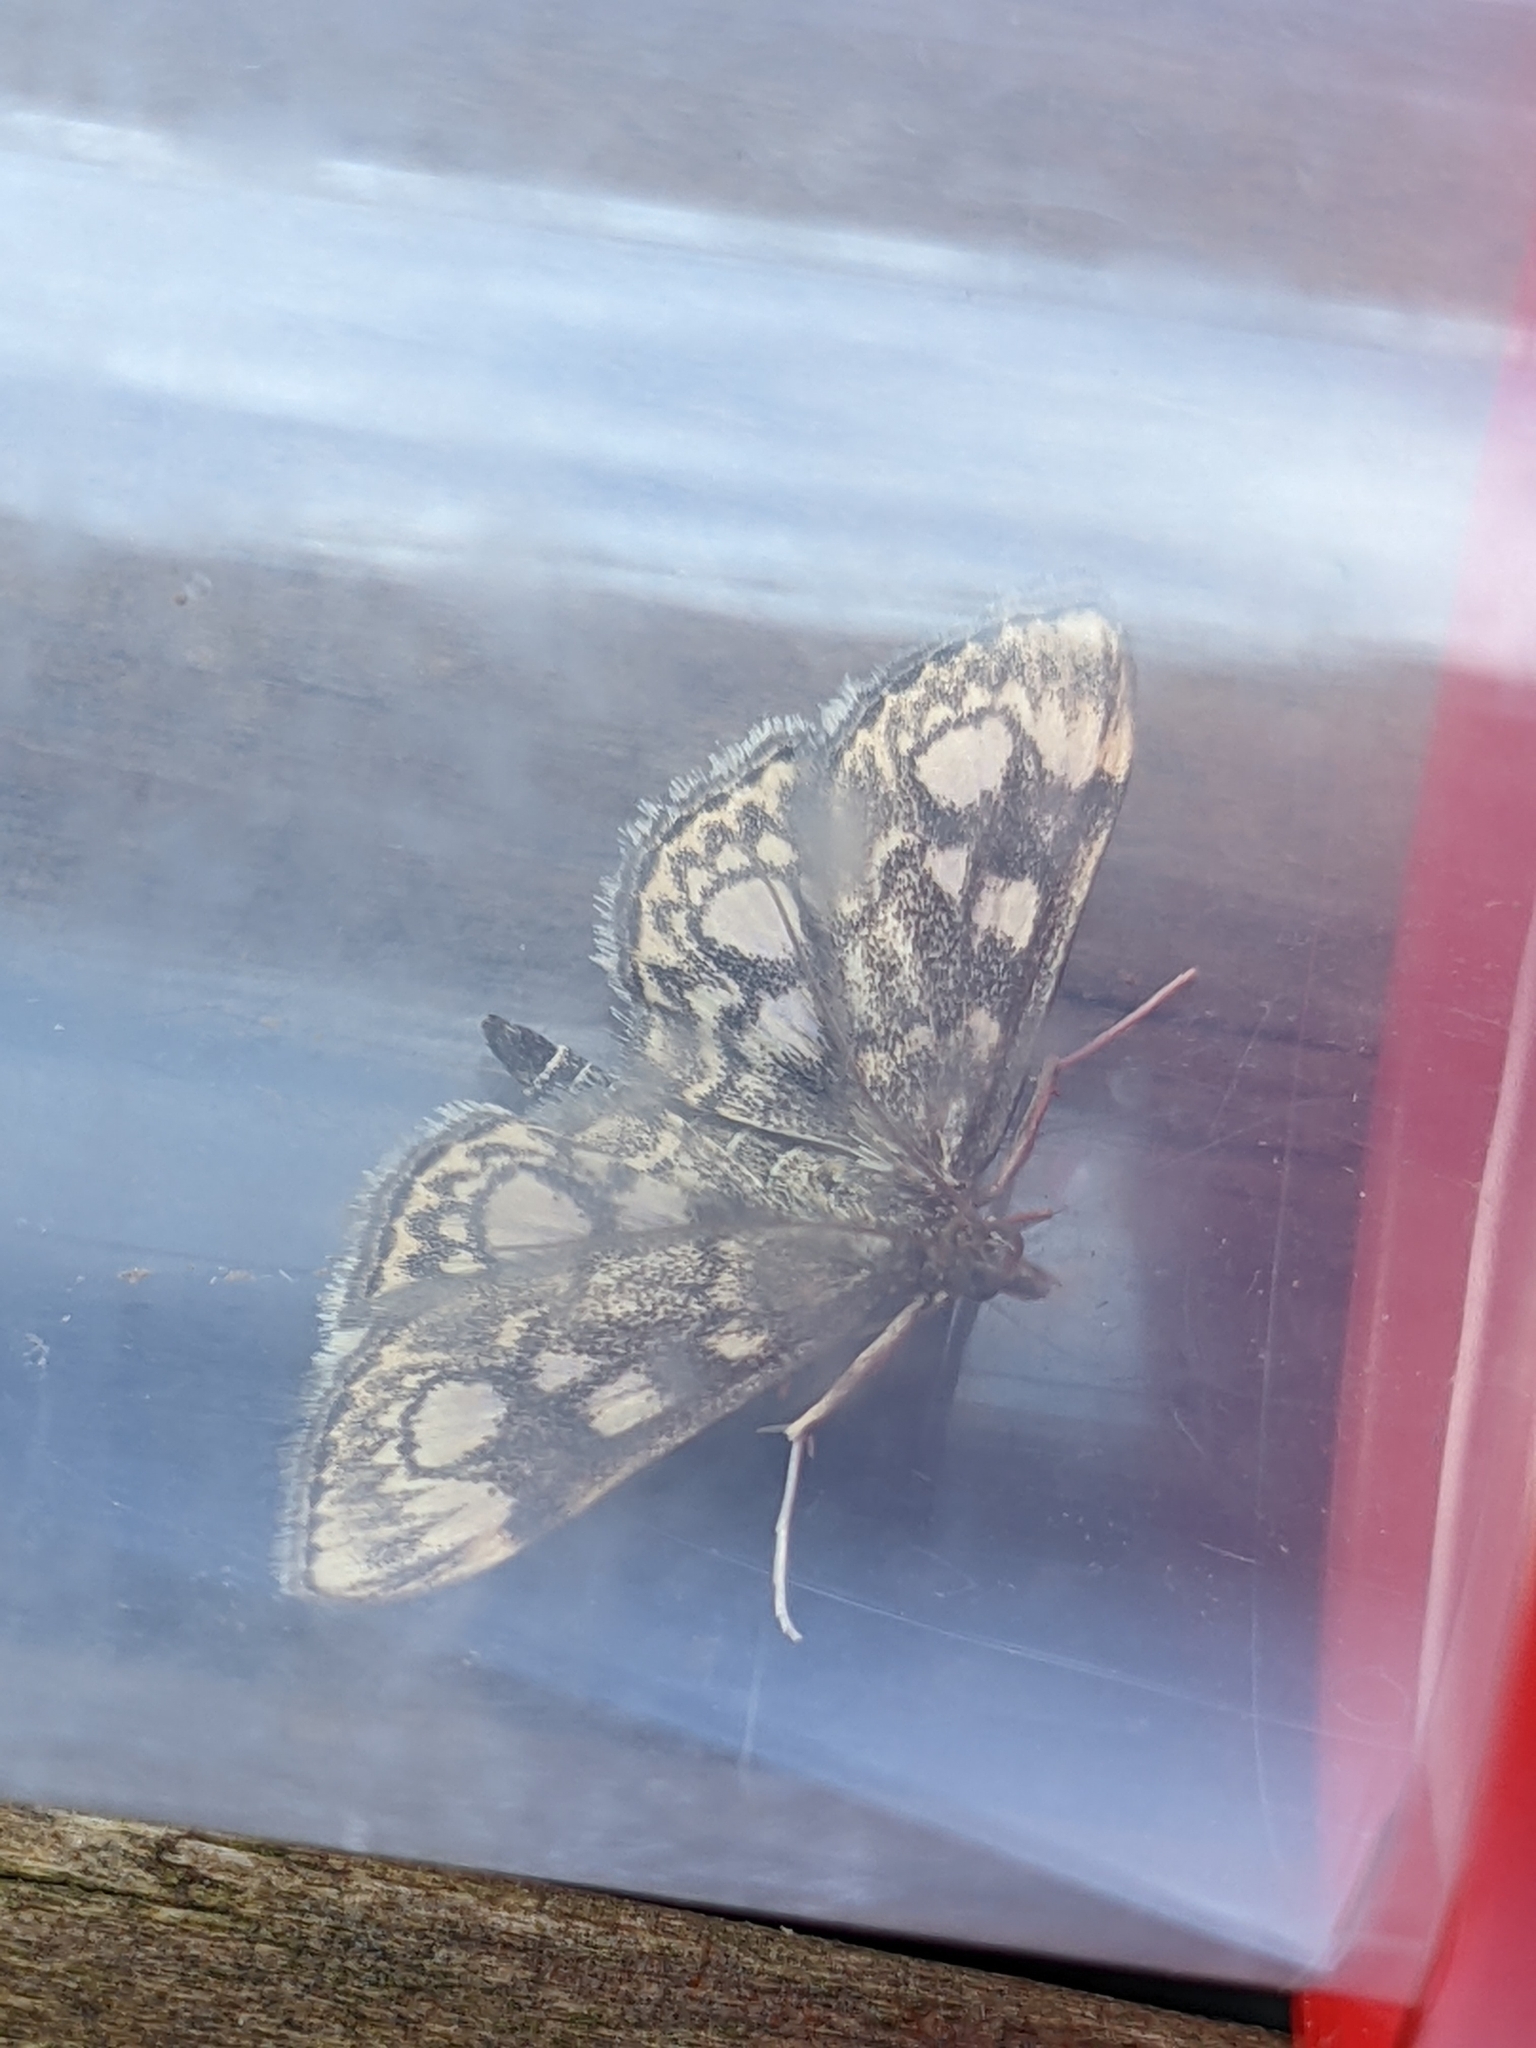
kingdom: Animalia
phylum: Arthropoda
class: Insecta
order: Lepidoptera
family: Crambidae
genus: Anania
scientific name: Anania coronata
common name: Elder pearl
